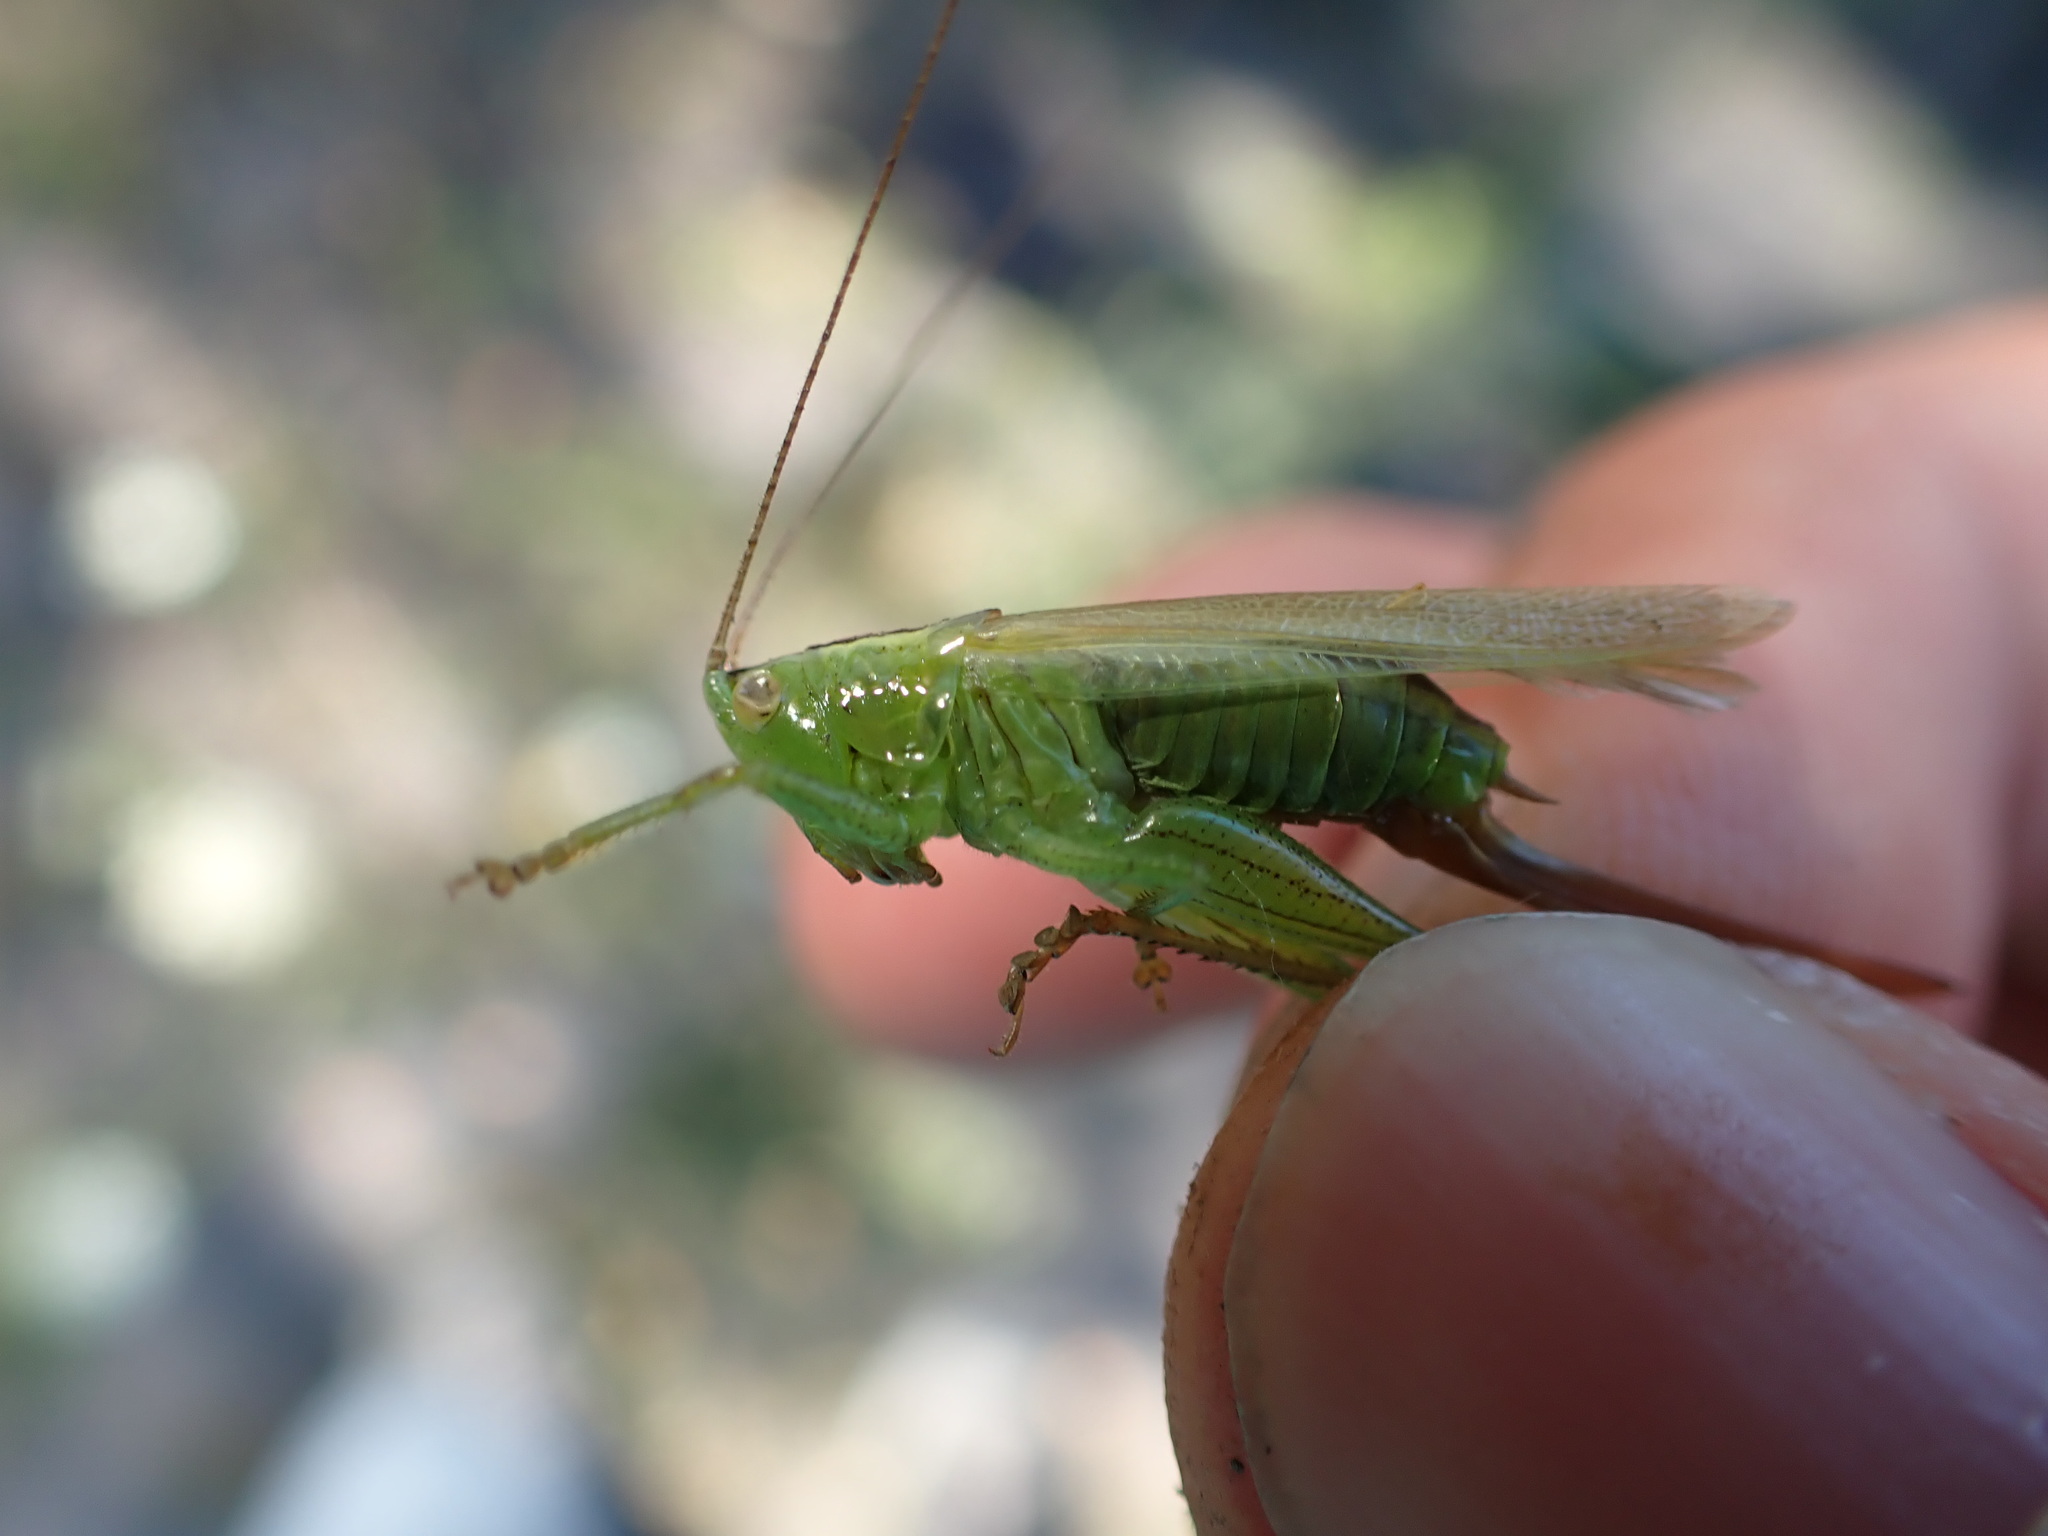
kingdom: Animalia
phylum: Arthropoda
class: Insecta
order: Orthoptera
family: Tettigoniidae
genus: Conocephalus
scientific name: Conocephalus fuscus
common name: Long-winged conehead
